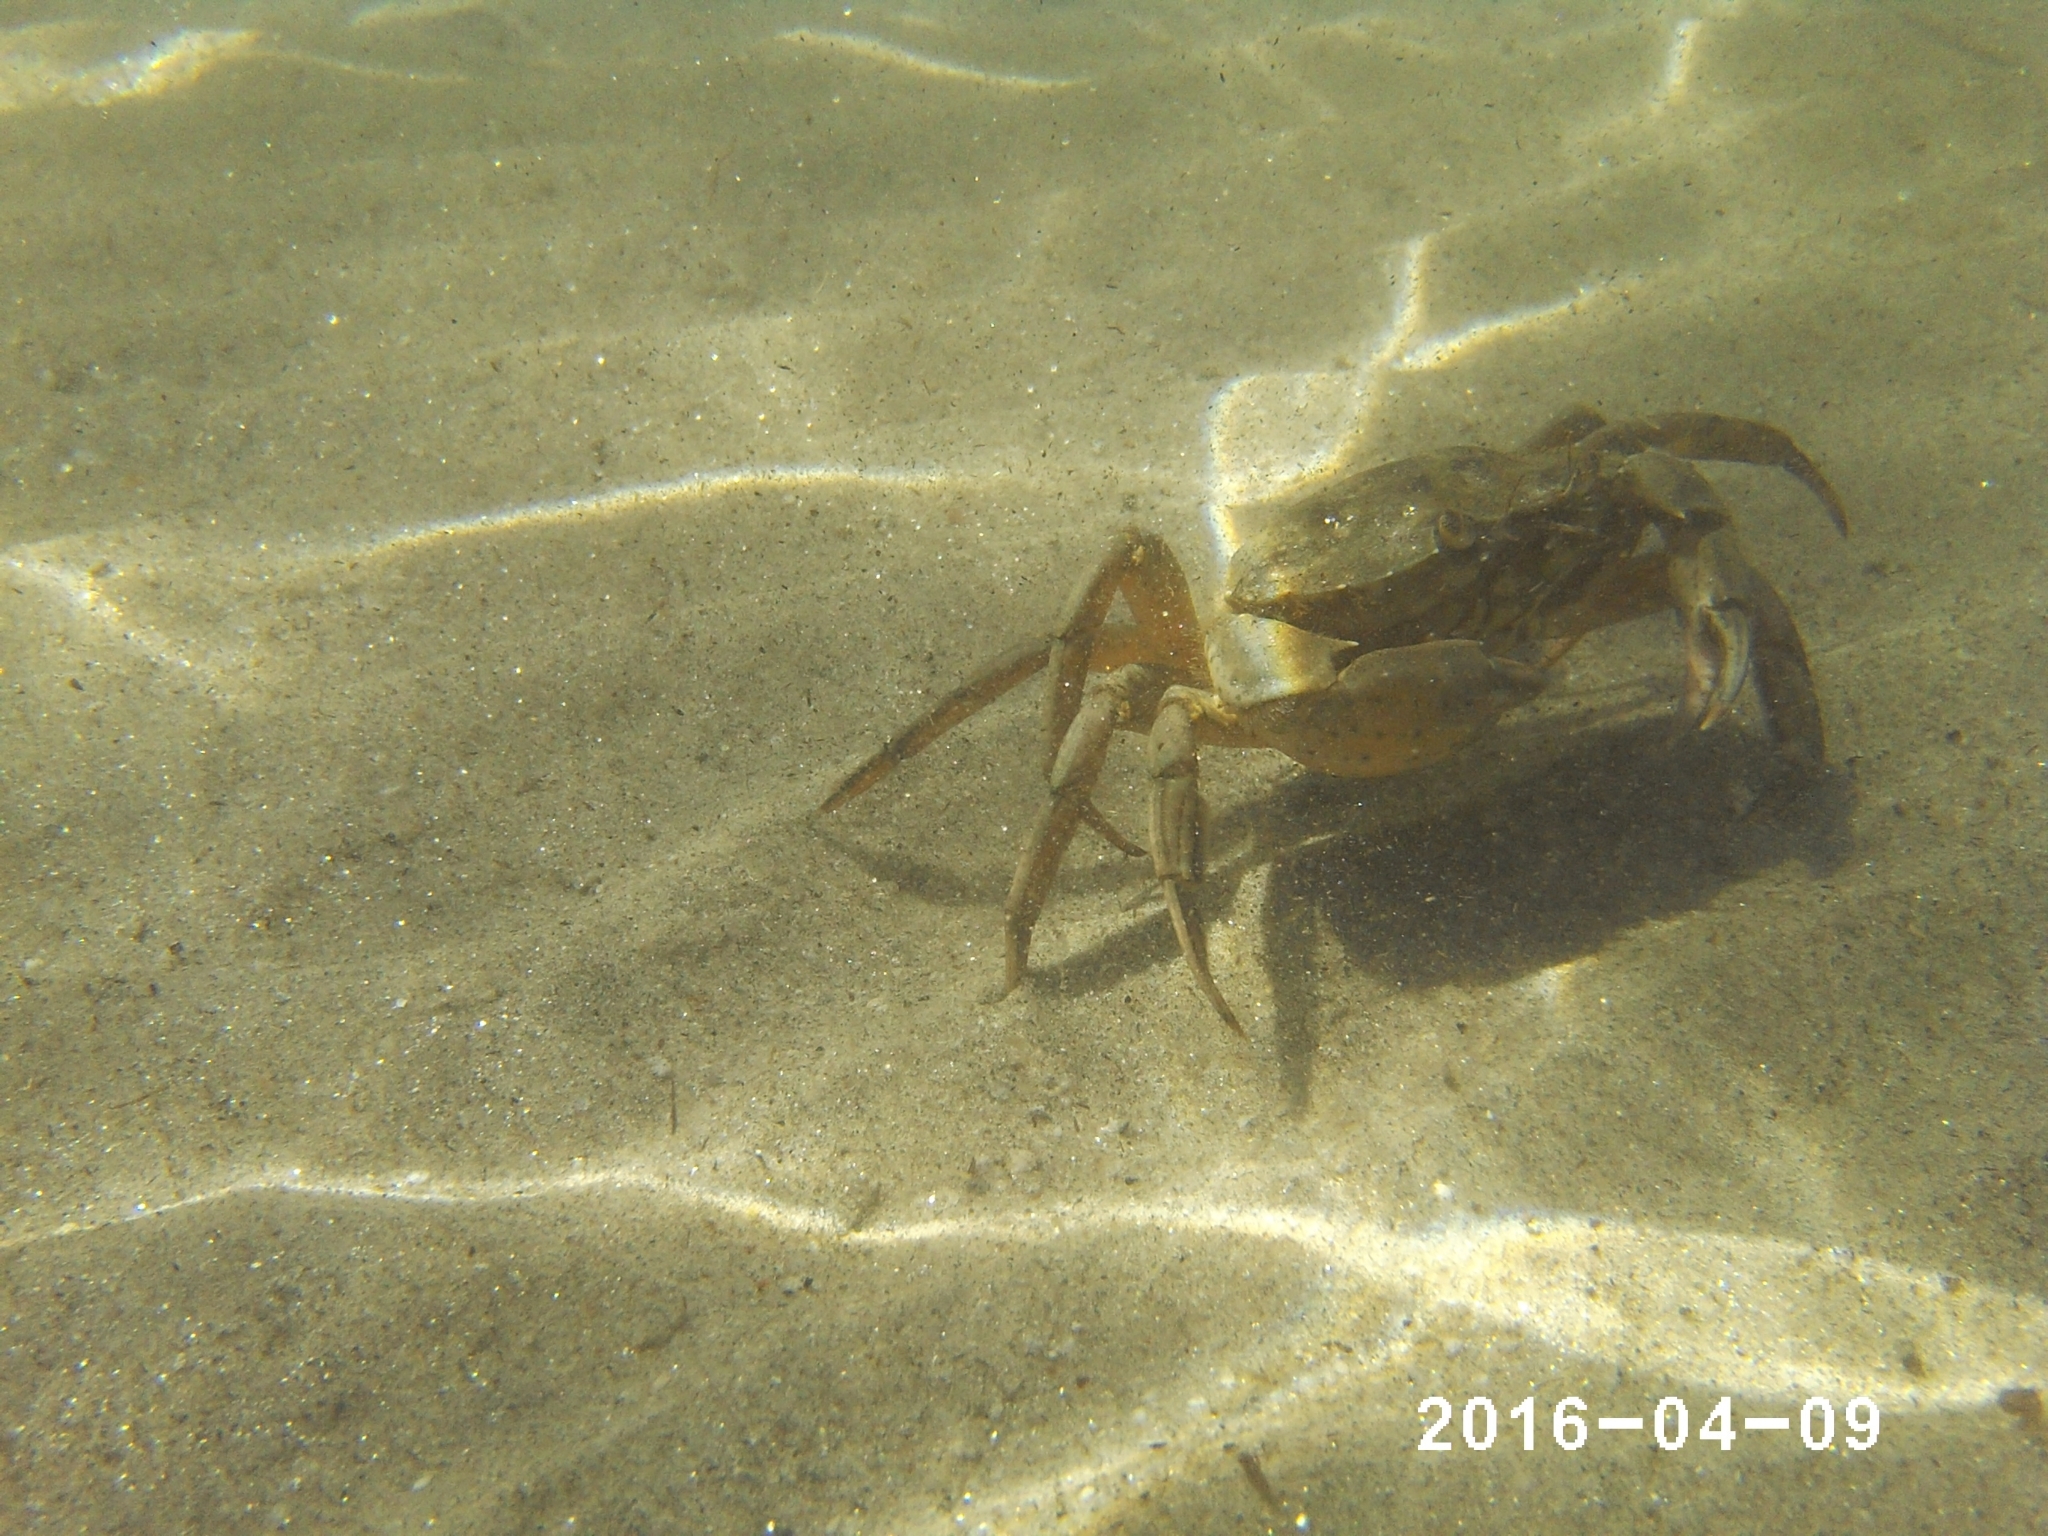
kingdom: Animalia
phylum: Arthropoda
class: Malacostraca
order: Decapoda
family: Carcinidae
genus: Carcinus
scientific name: Carcinus aestuarii
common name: Mediterranean green crab
